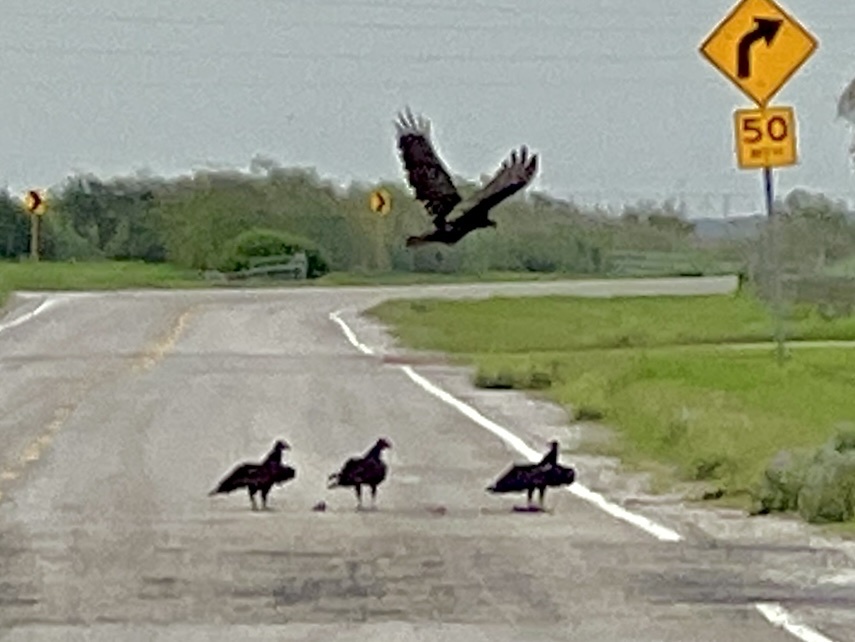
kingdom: Animalia
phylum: Chordata
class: Aves
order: Accipitriformes
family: Cathartidae
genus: Cathartes
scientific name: Cathartes aura
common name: Turkey vulture
